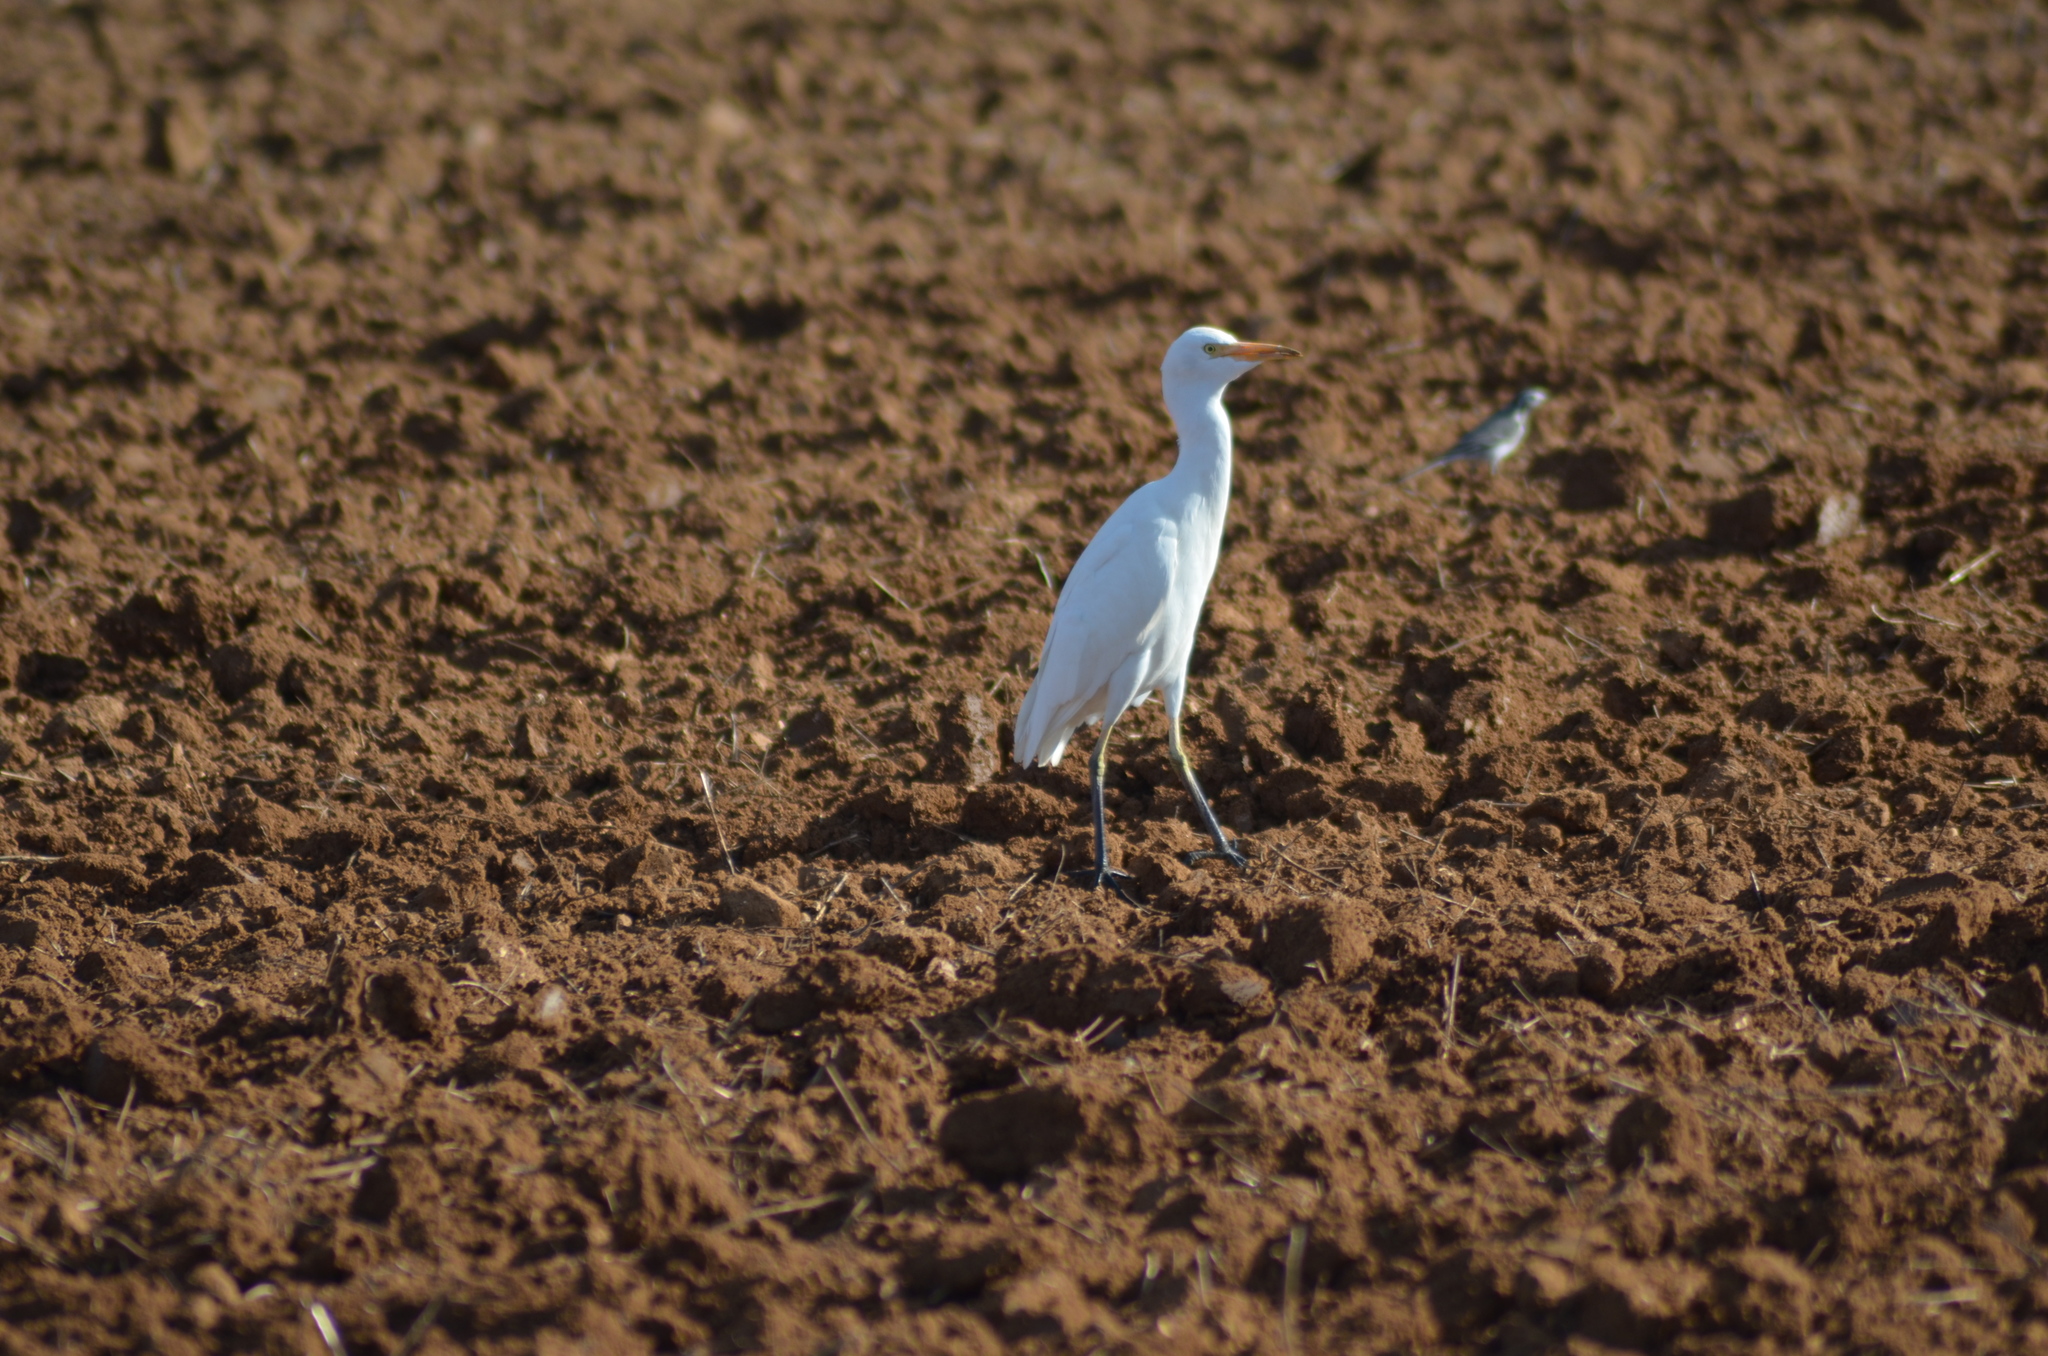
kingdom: Animalia
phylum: Chordata
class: Aves
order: Pelecaniformes
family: Ardeidae
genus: Bubulcus
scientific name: Bubulcus ibis
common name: Cattle egret
